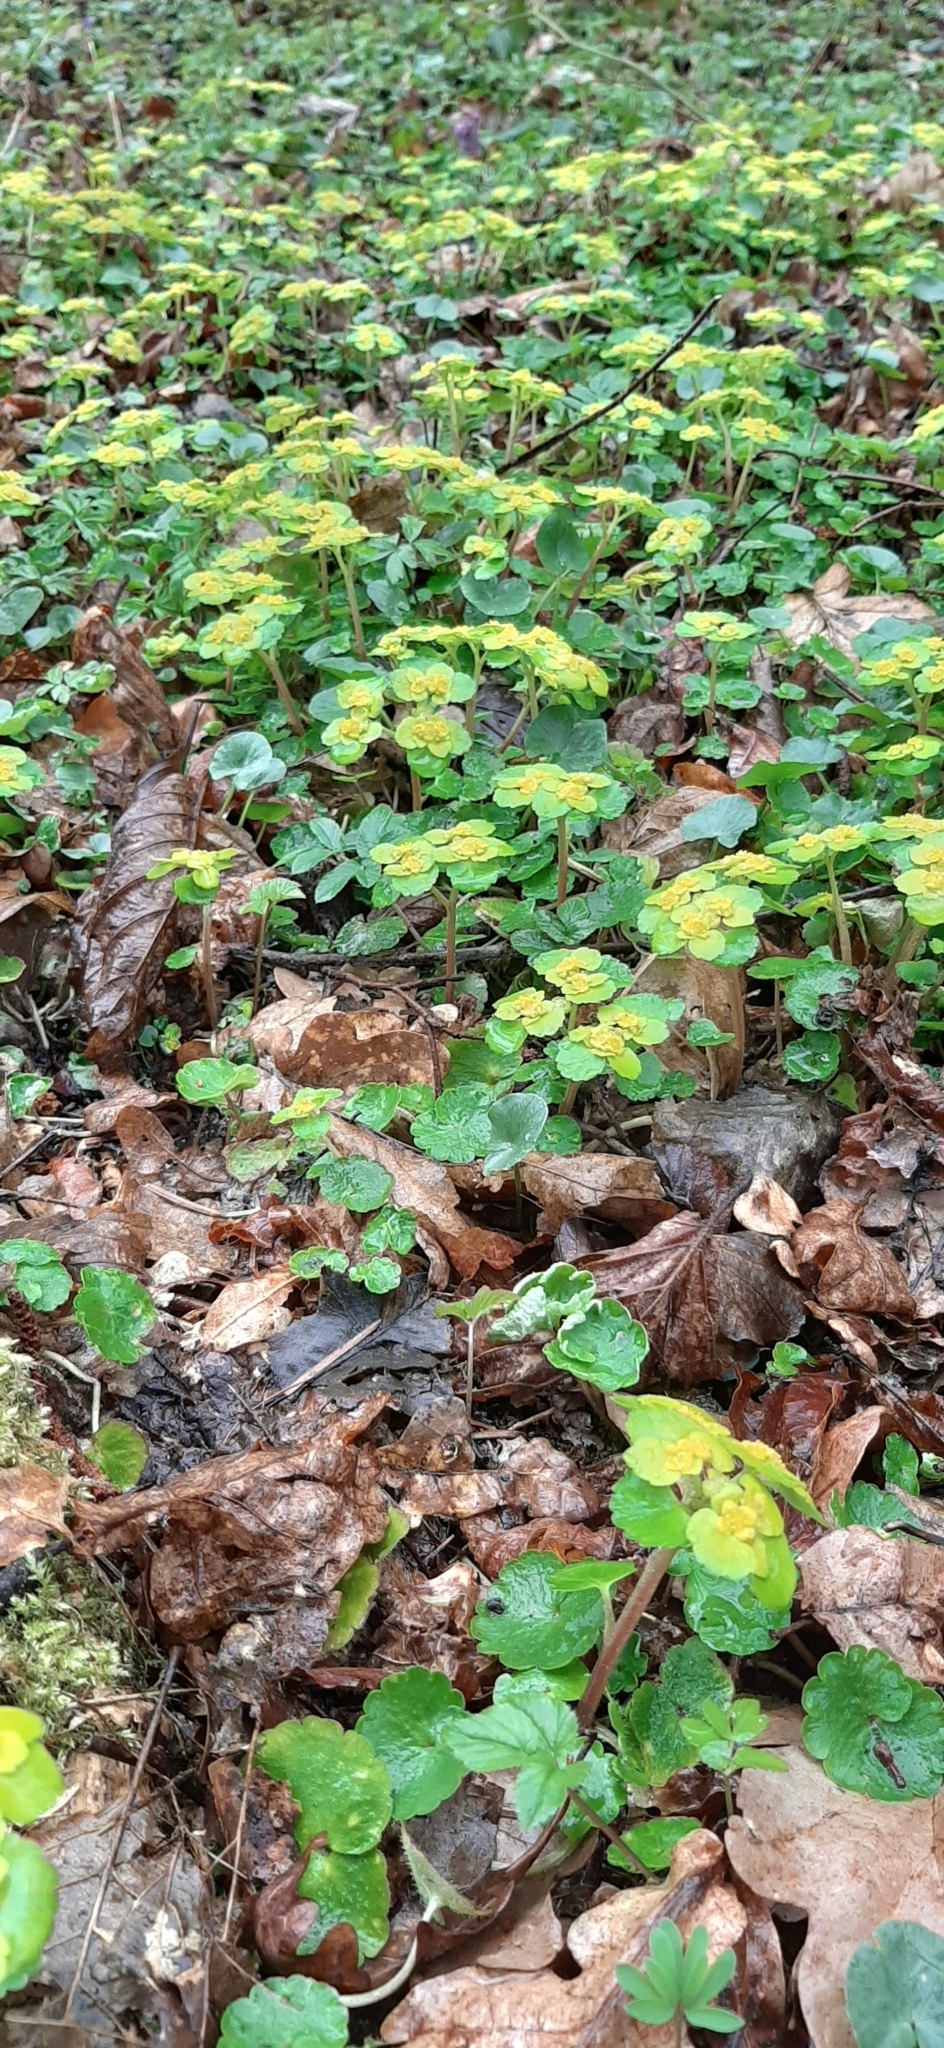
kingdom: Plantae
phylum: Tracheophyta
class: Magnoliopsida
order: Saxifragales
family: Saxifragaceae
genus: Chrysosplenium
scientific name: Chrysosplenium alternifolium
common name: Alternate-leaved golden-saxifrage
